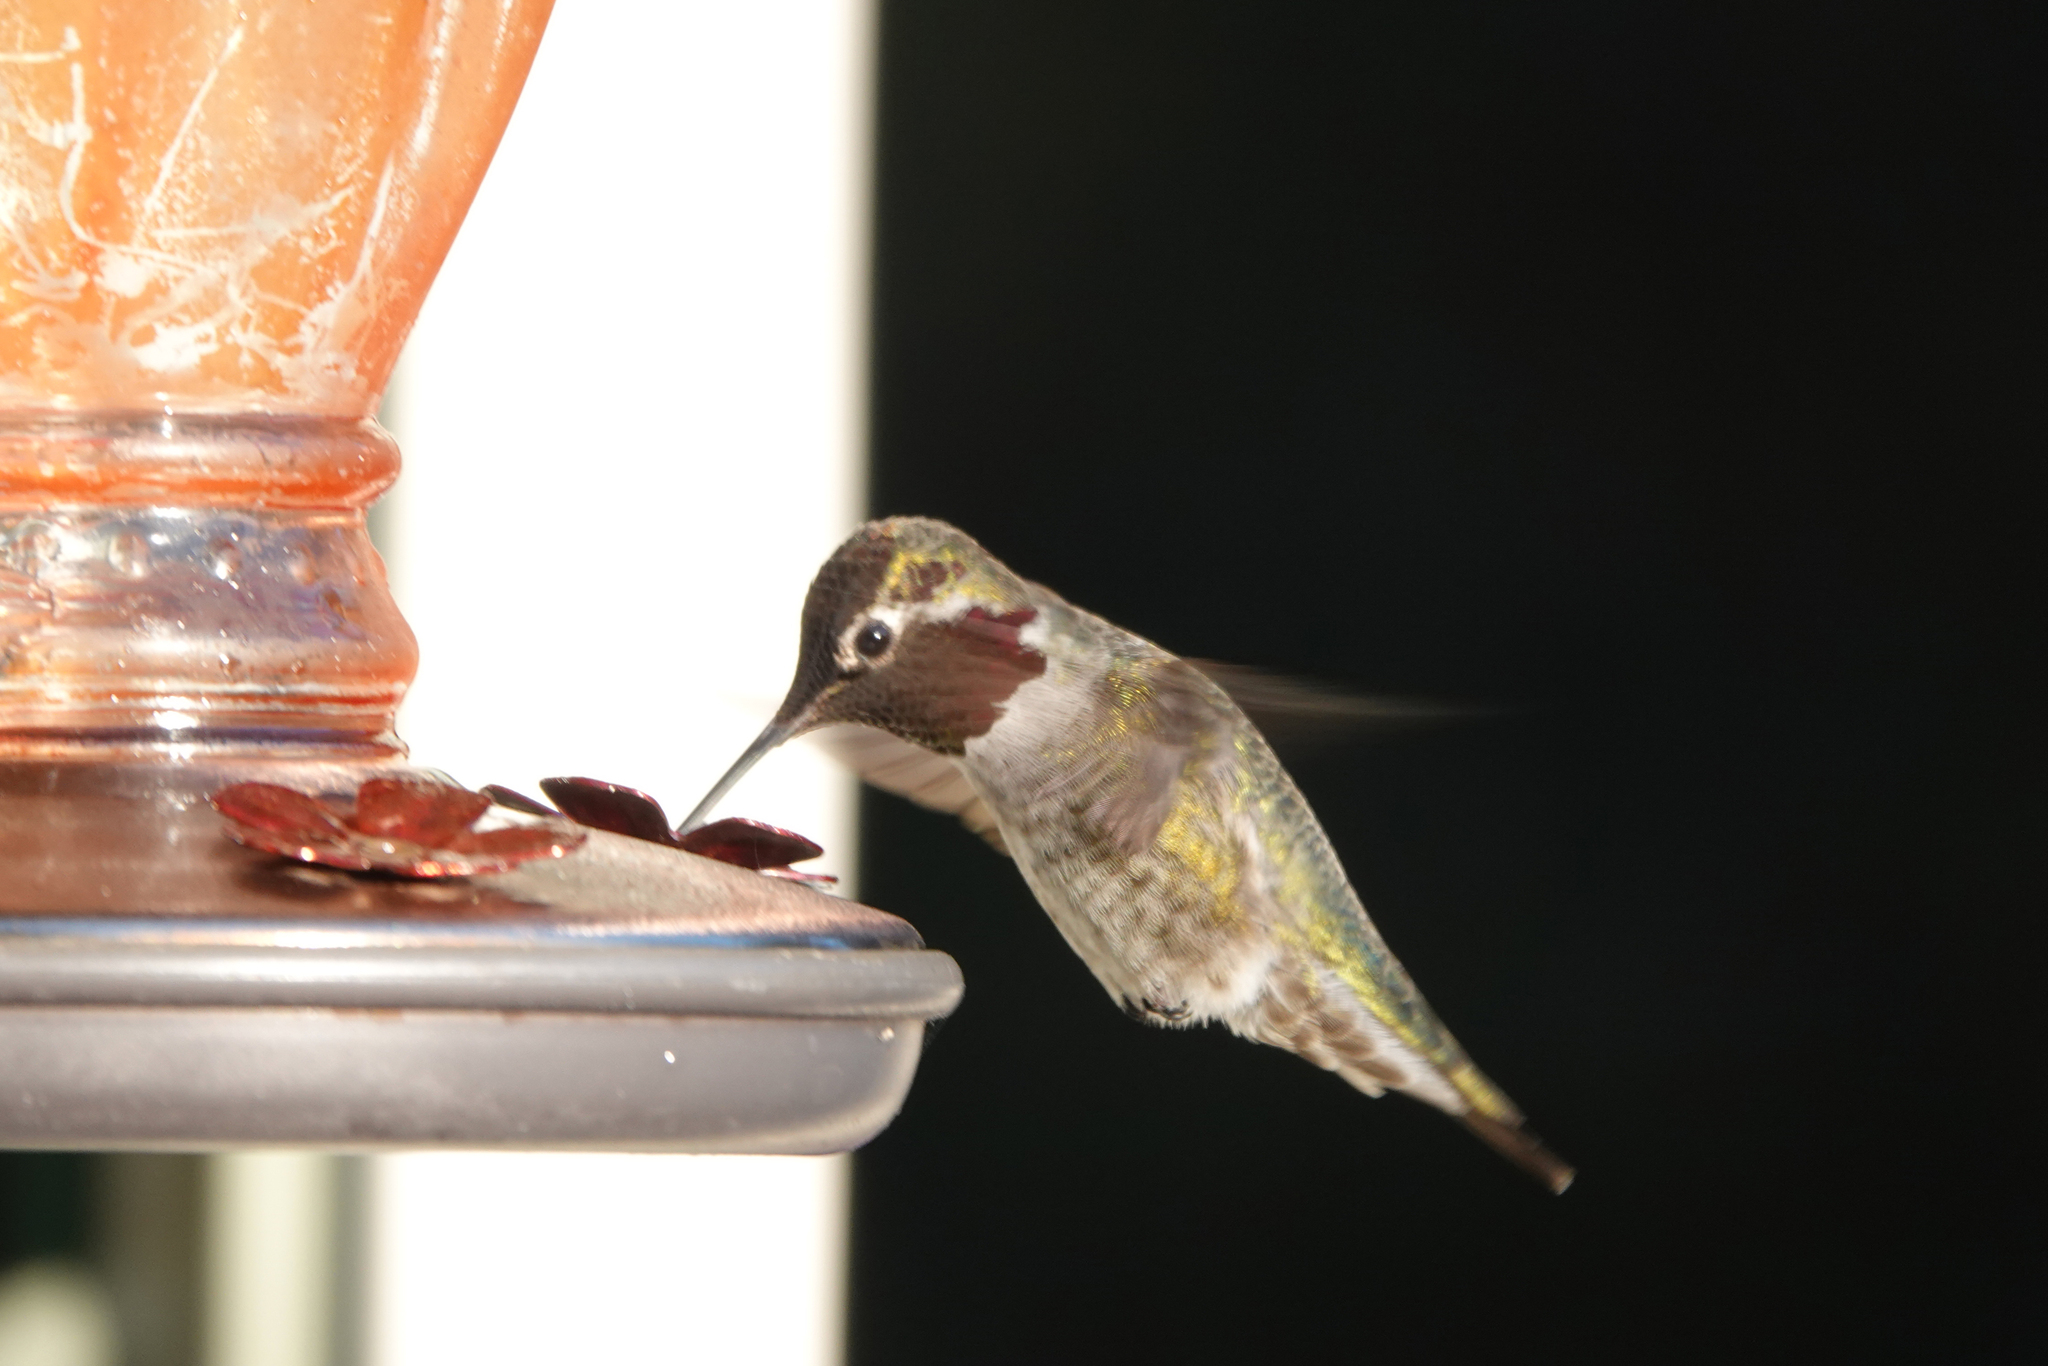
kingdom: Animalia
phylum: Chordata
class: Aves
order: Apodiformes
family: Trochilidae
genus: Calypte
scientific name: Calypte anna
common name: Anna's hummingbird
